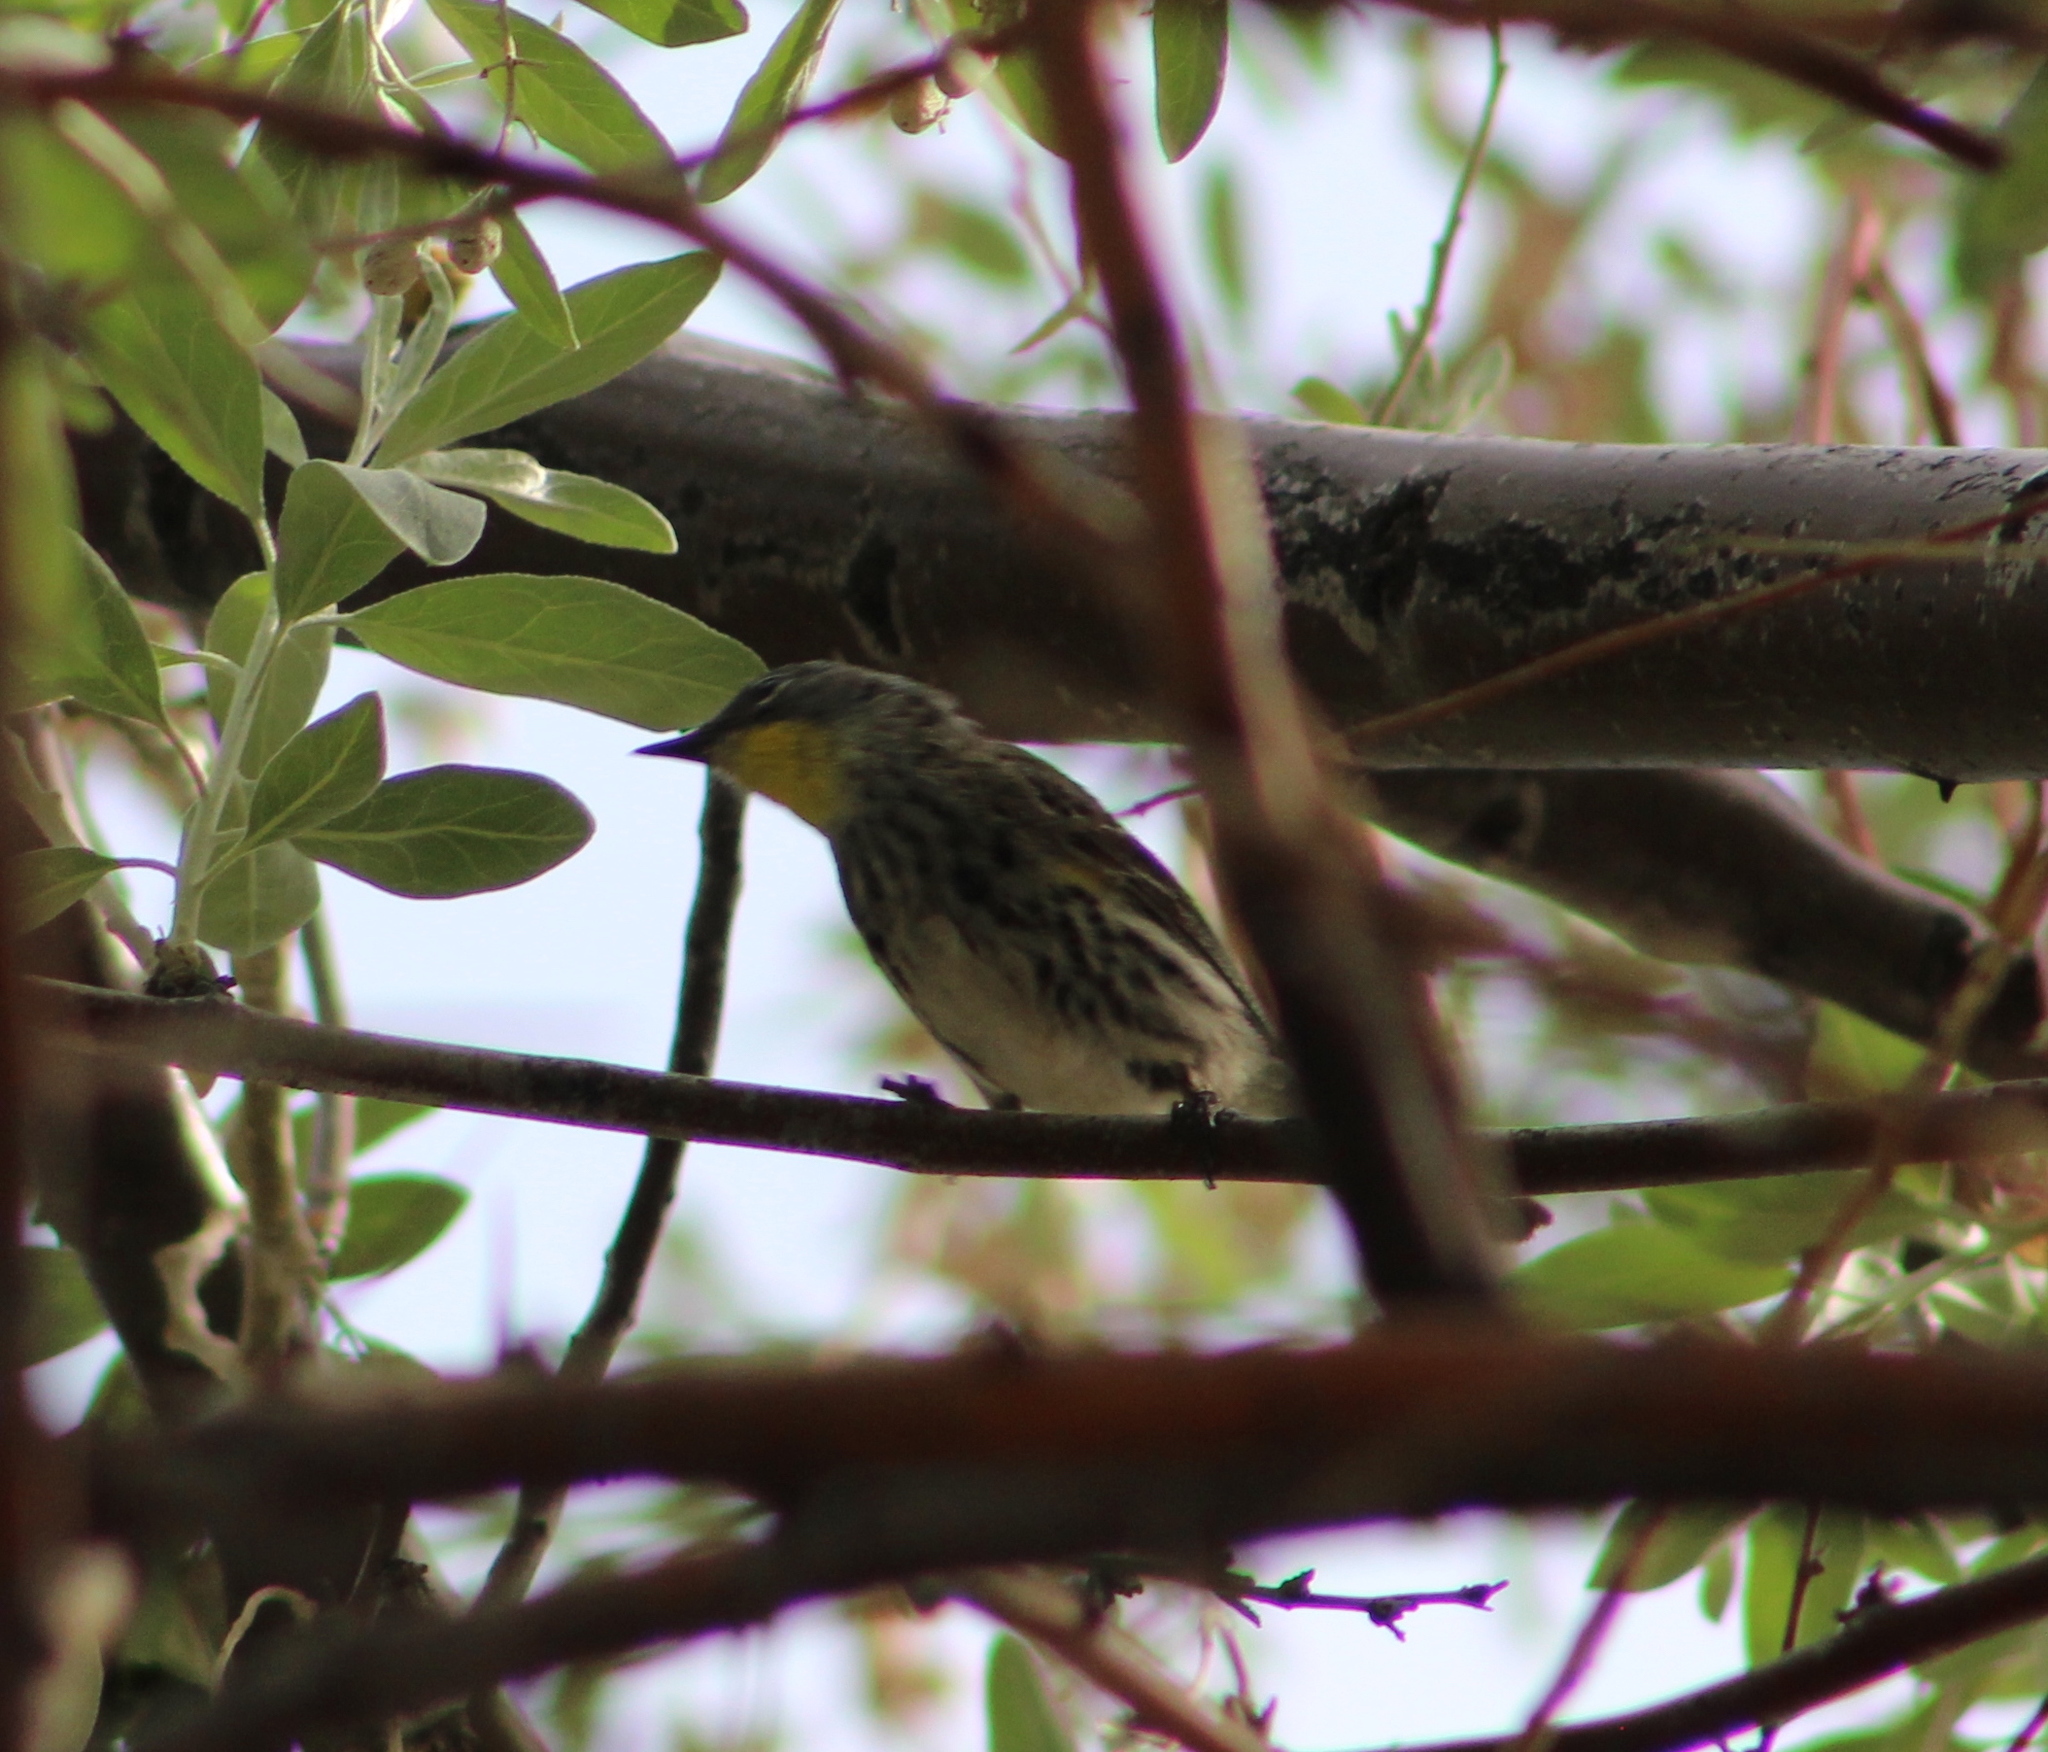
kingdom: Animalia
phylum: Chordata
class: Aves
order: Passeriformes
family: Parulidae
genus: Setophaga
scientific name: Setophaga coronata
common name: Myrtle warbler
